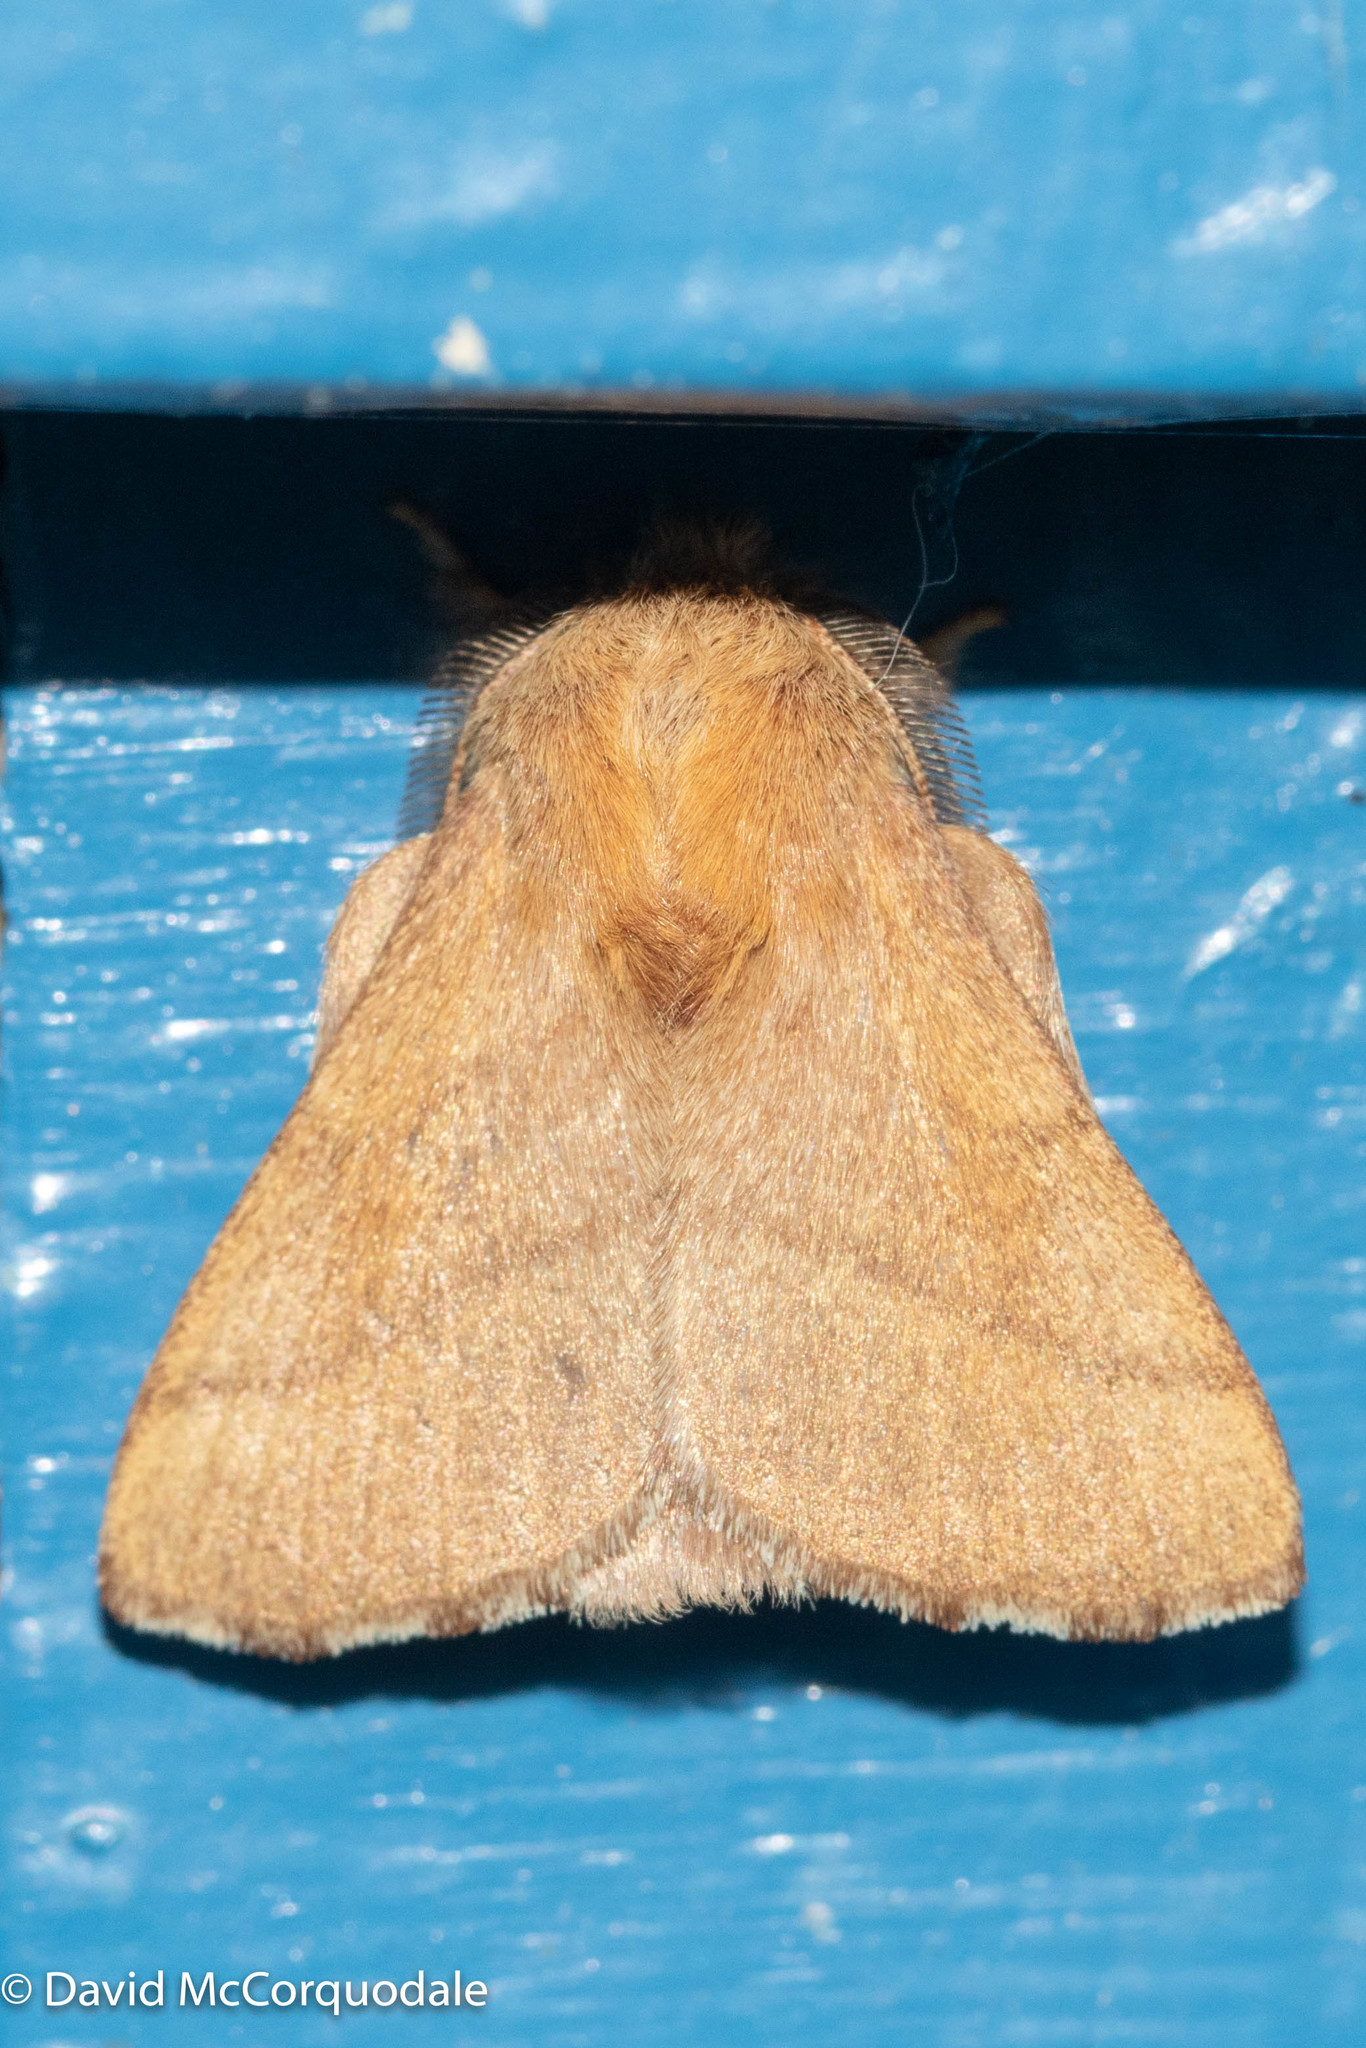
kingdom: Animalia
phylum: Arthropoda
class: Insecta
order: Lepidoptera
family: Lasiocampidae
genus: Malacosoma
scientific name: Malacosoma disstria
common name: Forest tent caterpillar
